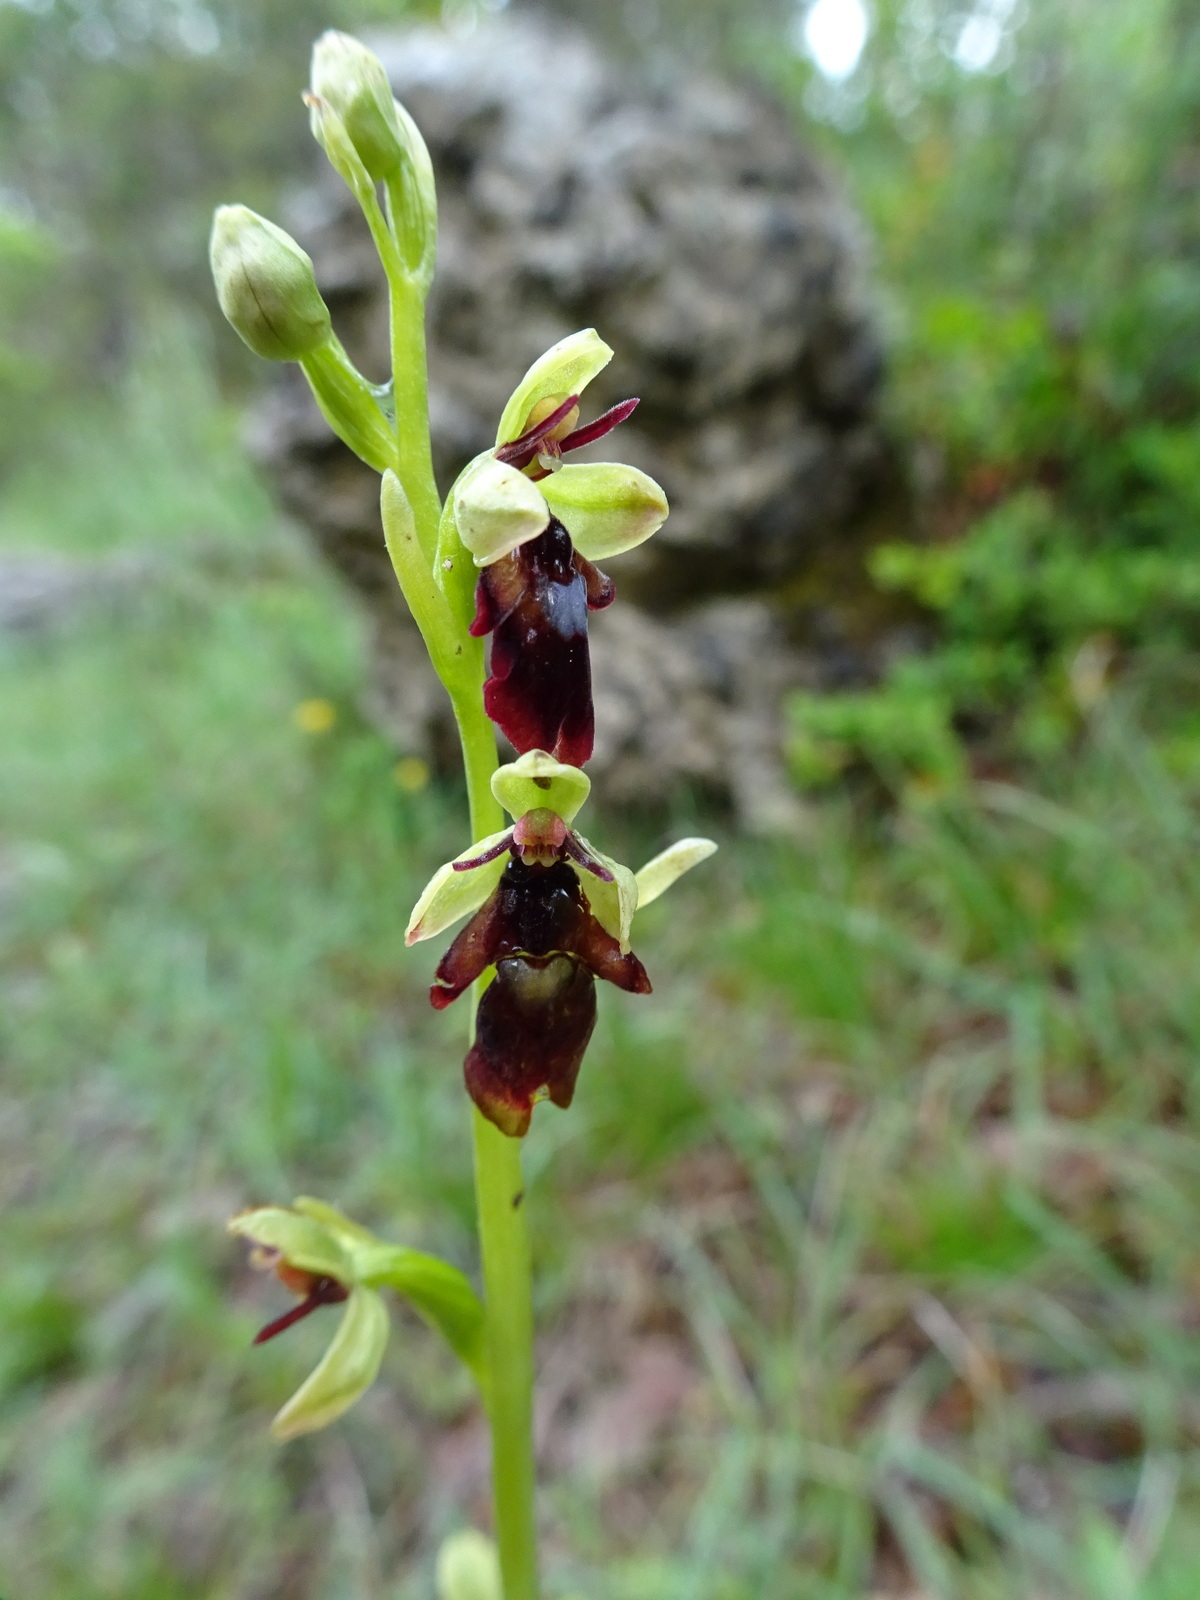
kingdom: Plantae
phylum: Tracheophyta
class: Liliopsida
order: Asparagales
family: Orchidaceae
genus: Ophrys
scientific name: Ophrys insectifera
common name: Fly orchid
